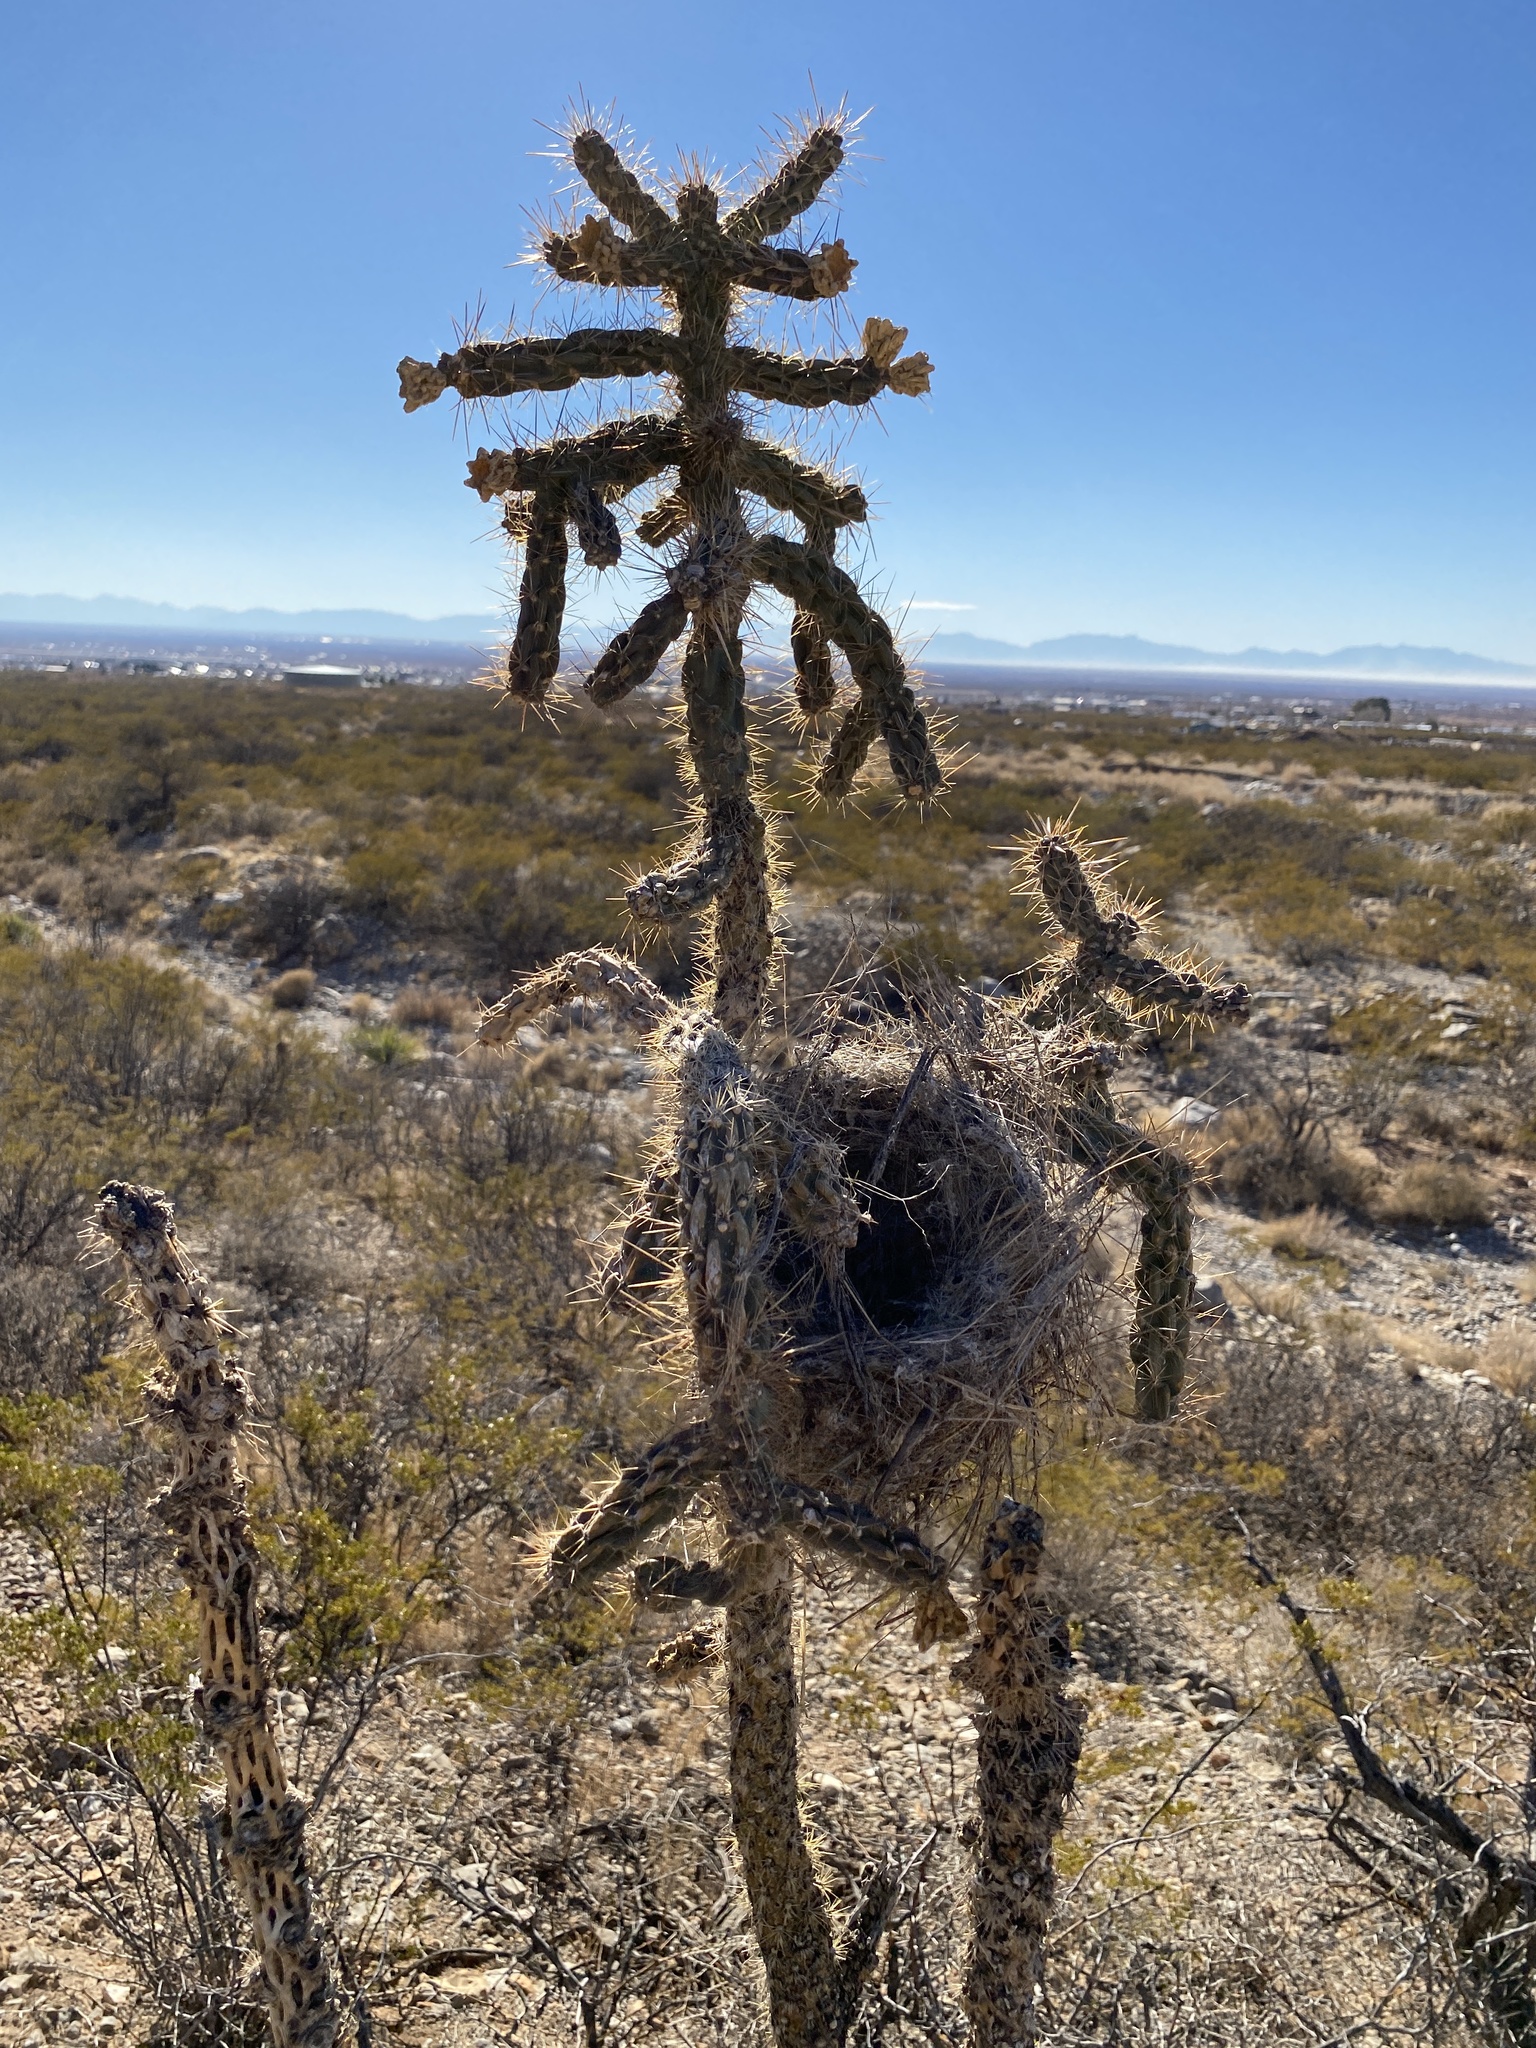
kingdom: Animalia
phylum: Chordata
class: Aves
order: Passeriformes
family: Troglodytidae
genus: Campylorhynchus
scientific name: Campylorhynchus brunneicapillus
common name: Cactus wren
